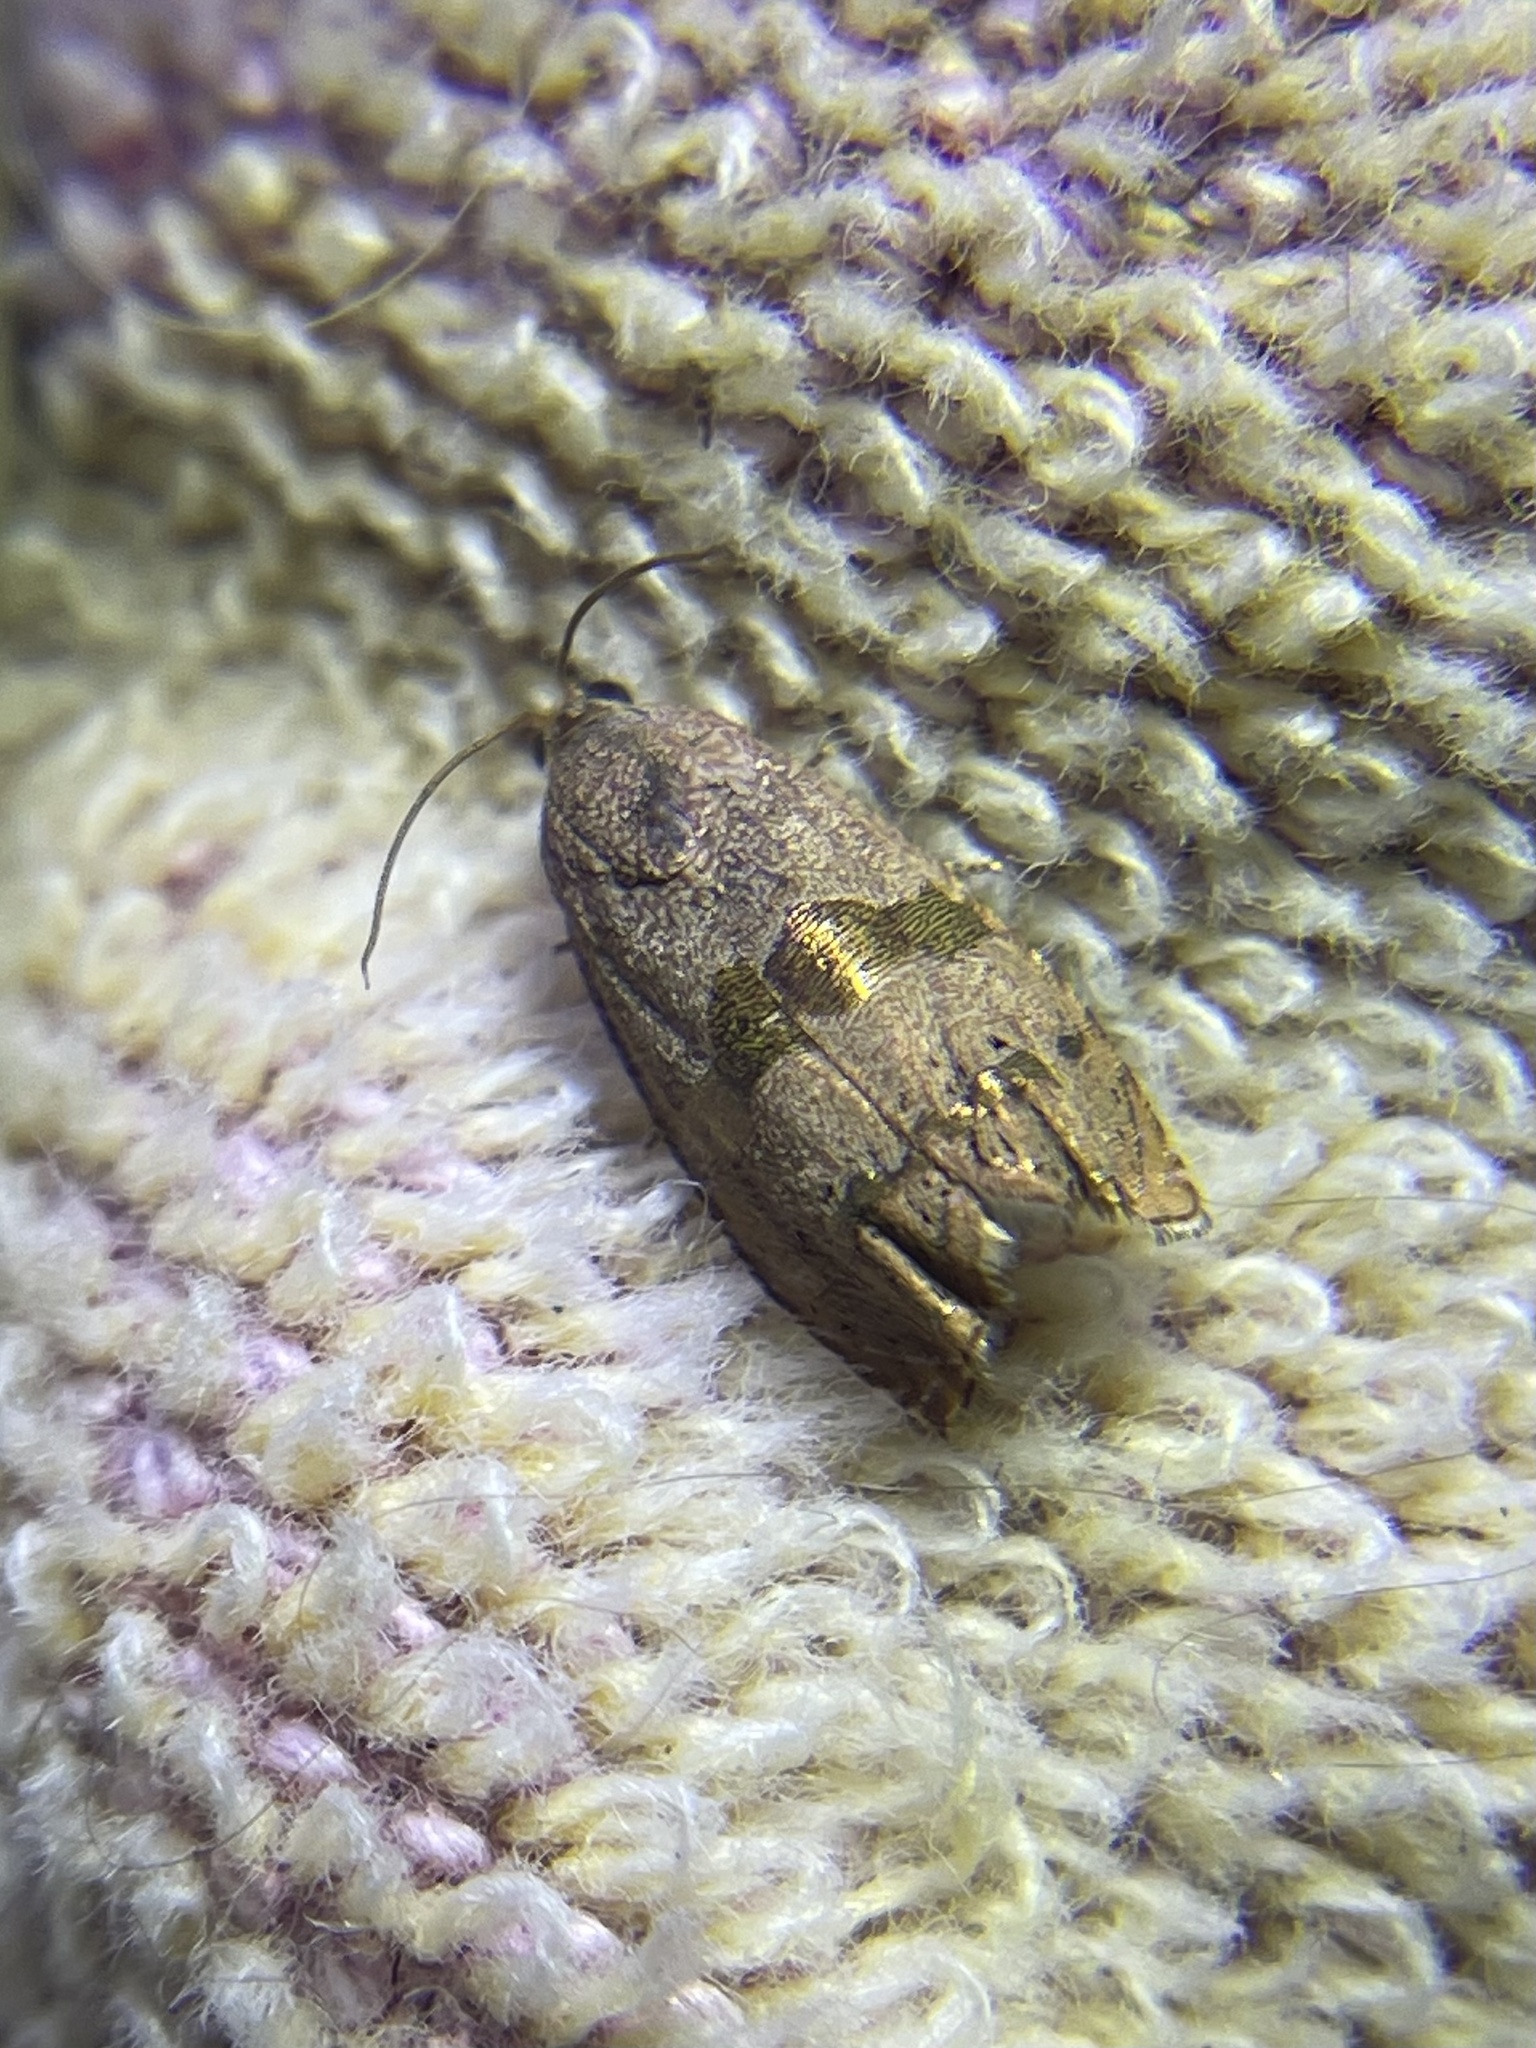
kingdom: Animalia
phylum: Arthropoda
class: Insecta
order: Lepidoptera
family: Tortricidae
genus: Cydia
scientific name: Cydia latiferreana
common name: Filbertworm moth
